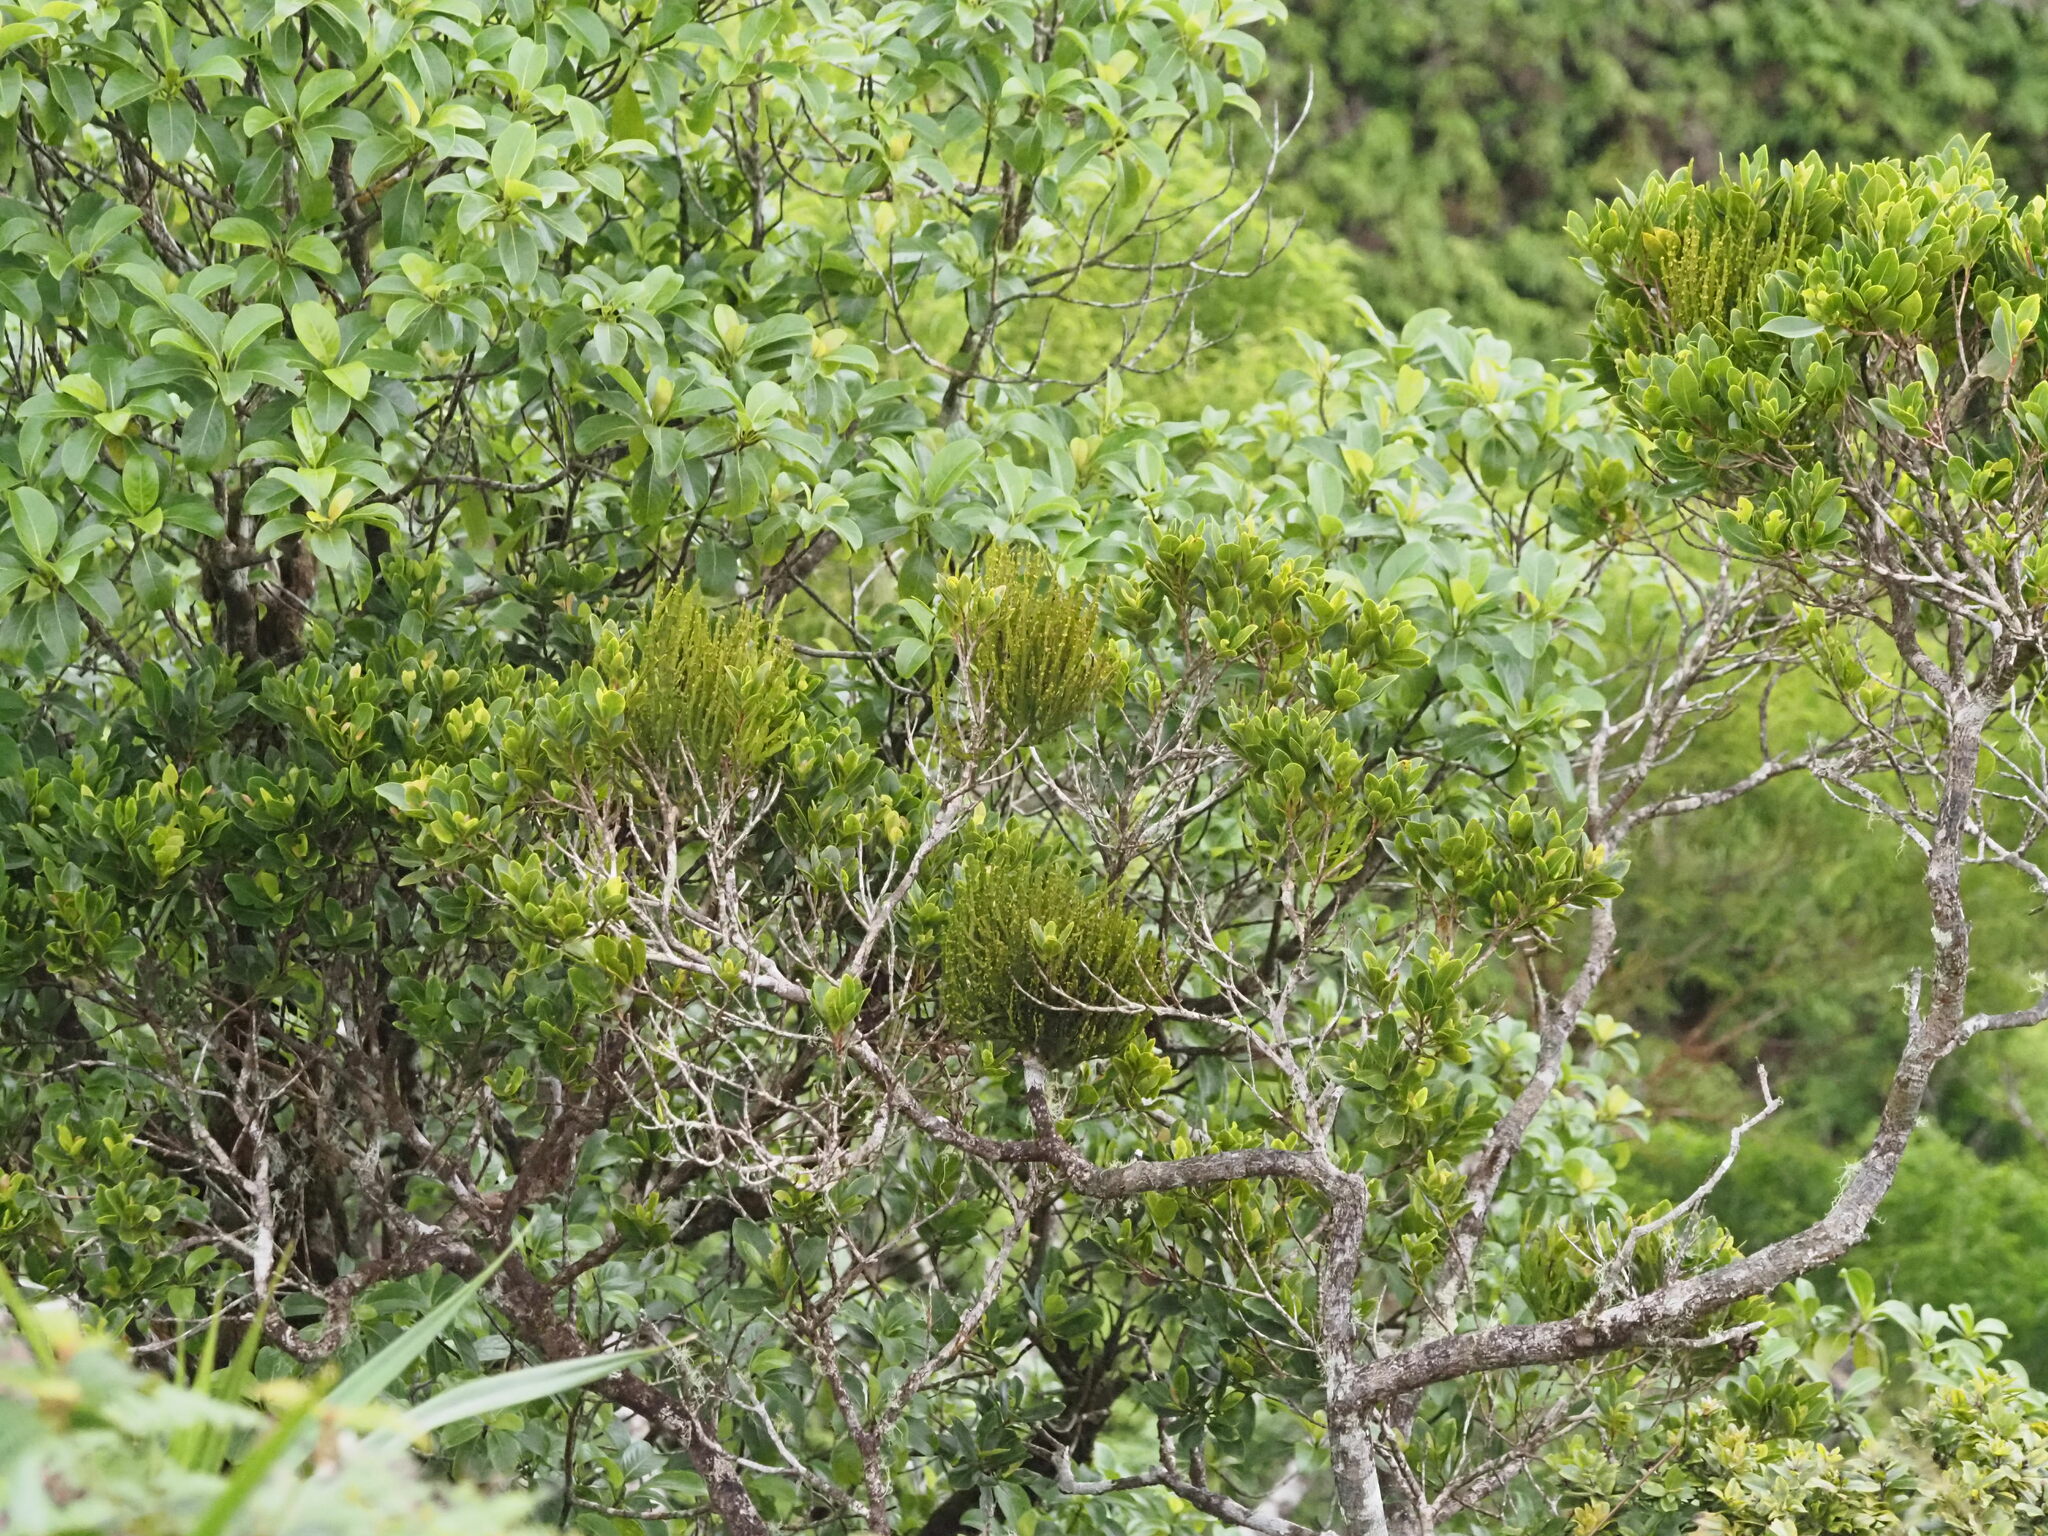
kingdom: Plantae
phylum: Tracheophyta
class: Magnoliopsida
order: Santalales
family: Viscaceae
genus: Korthalsella
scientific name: Korthalsella complanata
